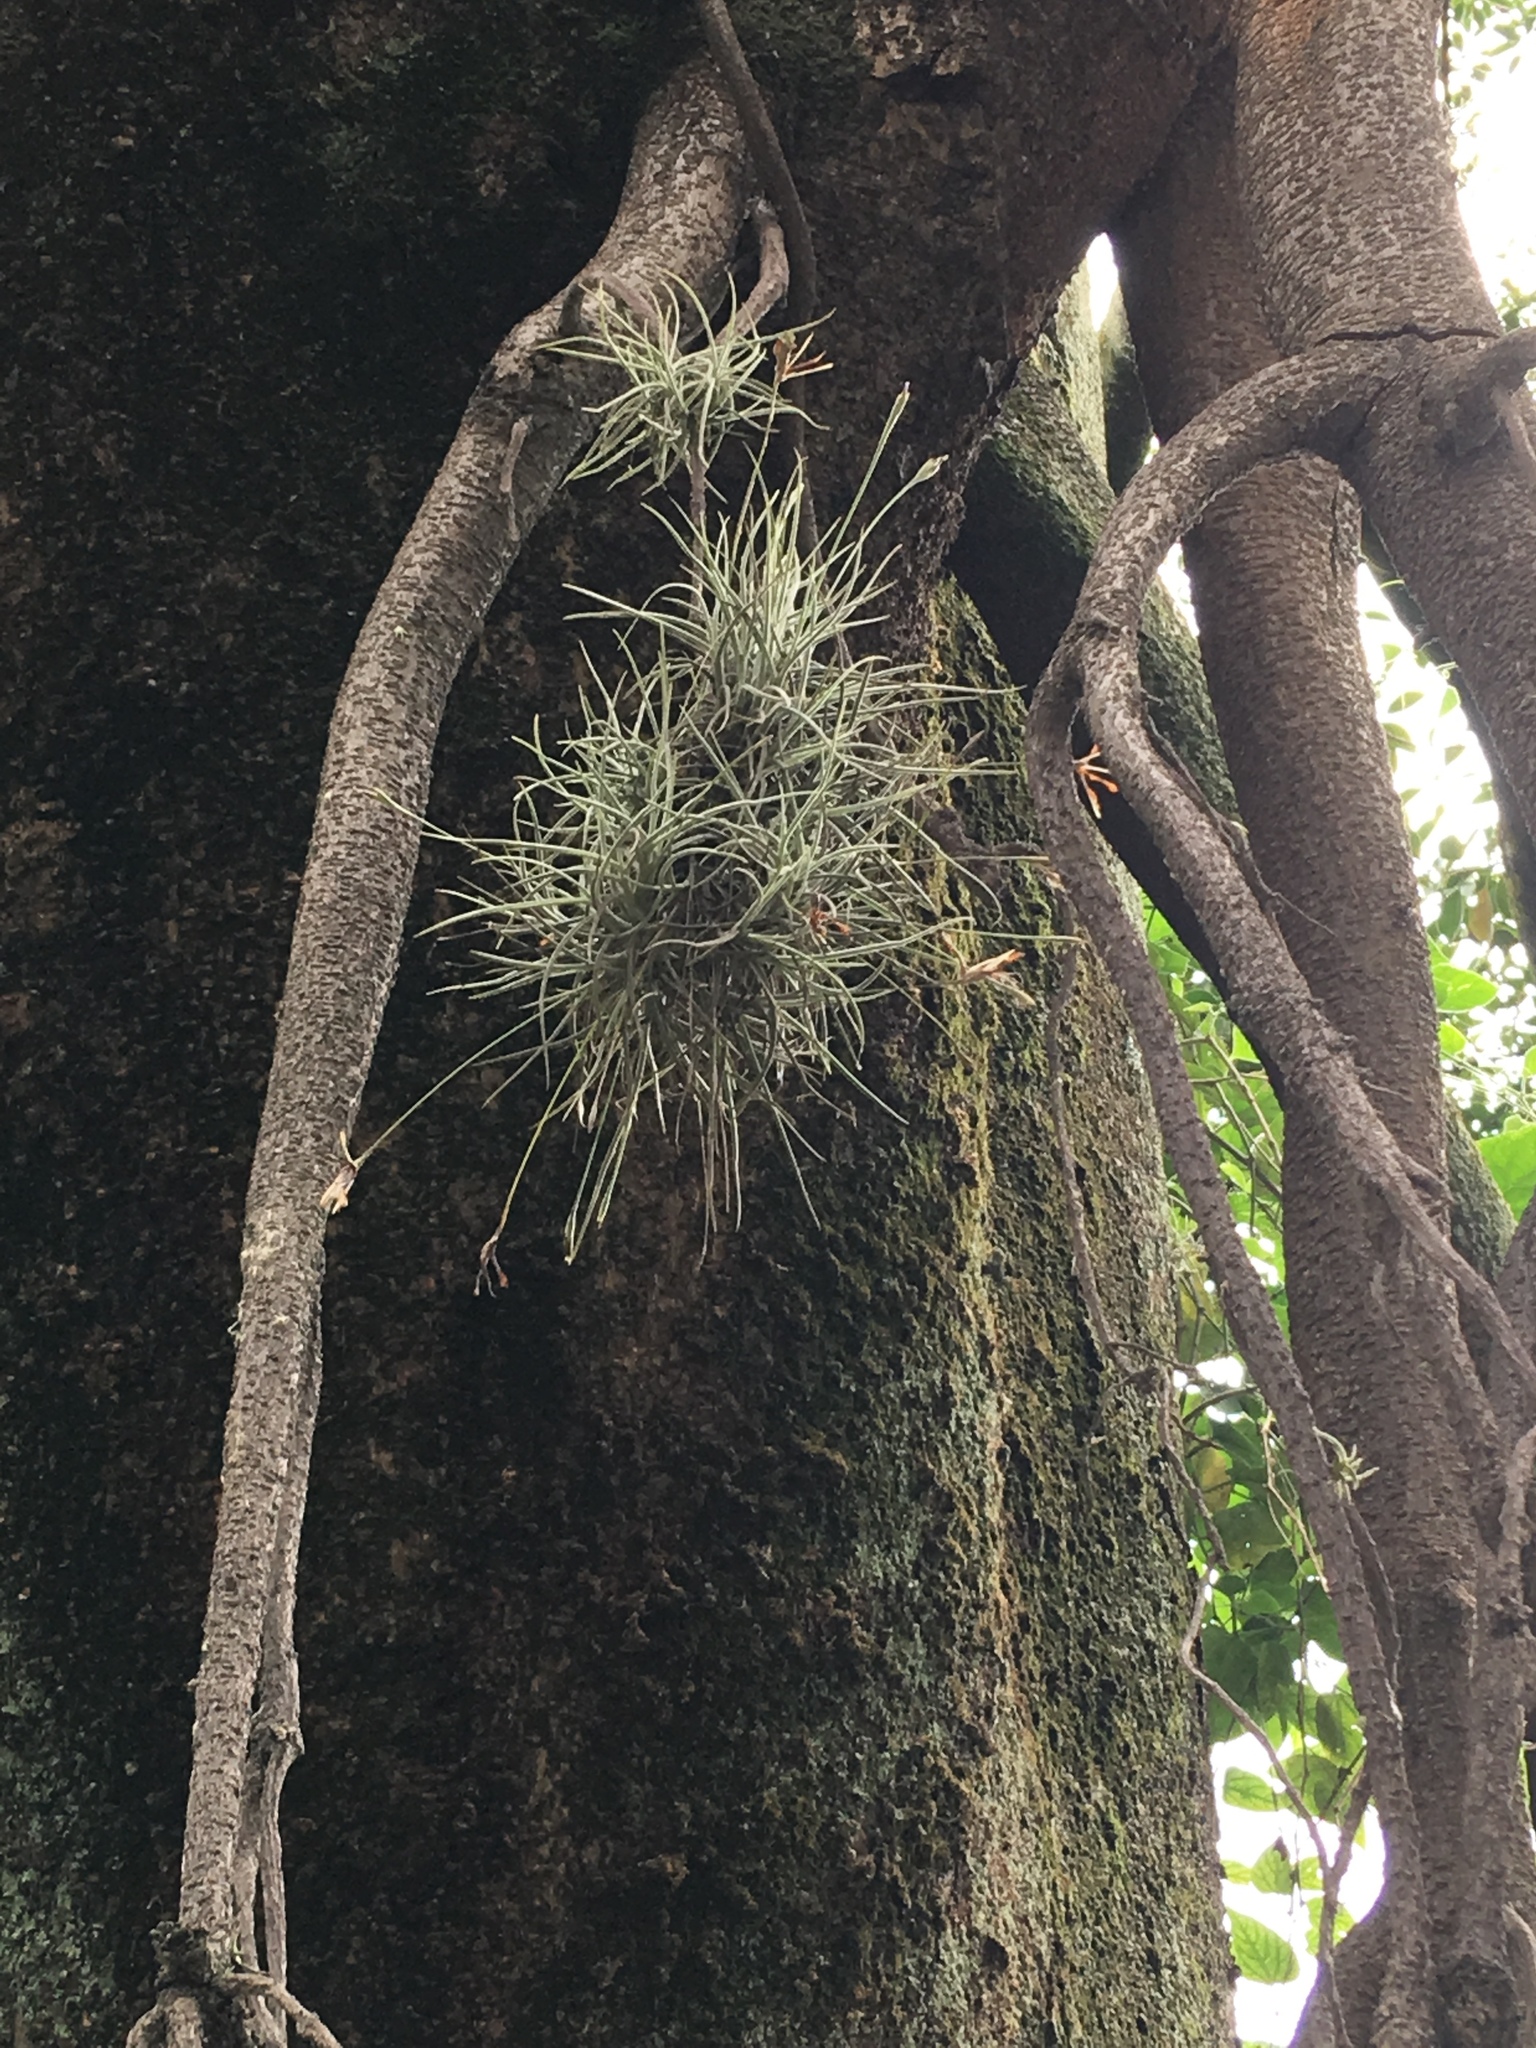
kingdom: Plantae
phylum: Tracheophyta
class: Liliopsida
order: Poales
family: Bromeliaceae
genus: Tillandsia
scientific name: Tillandsia recurvata
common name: Small ballmoss
